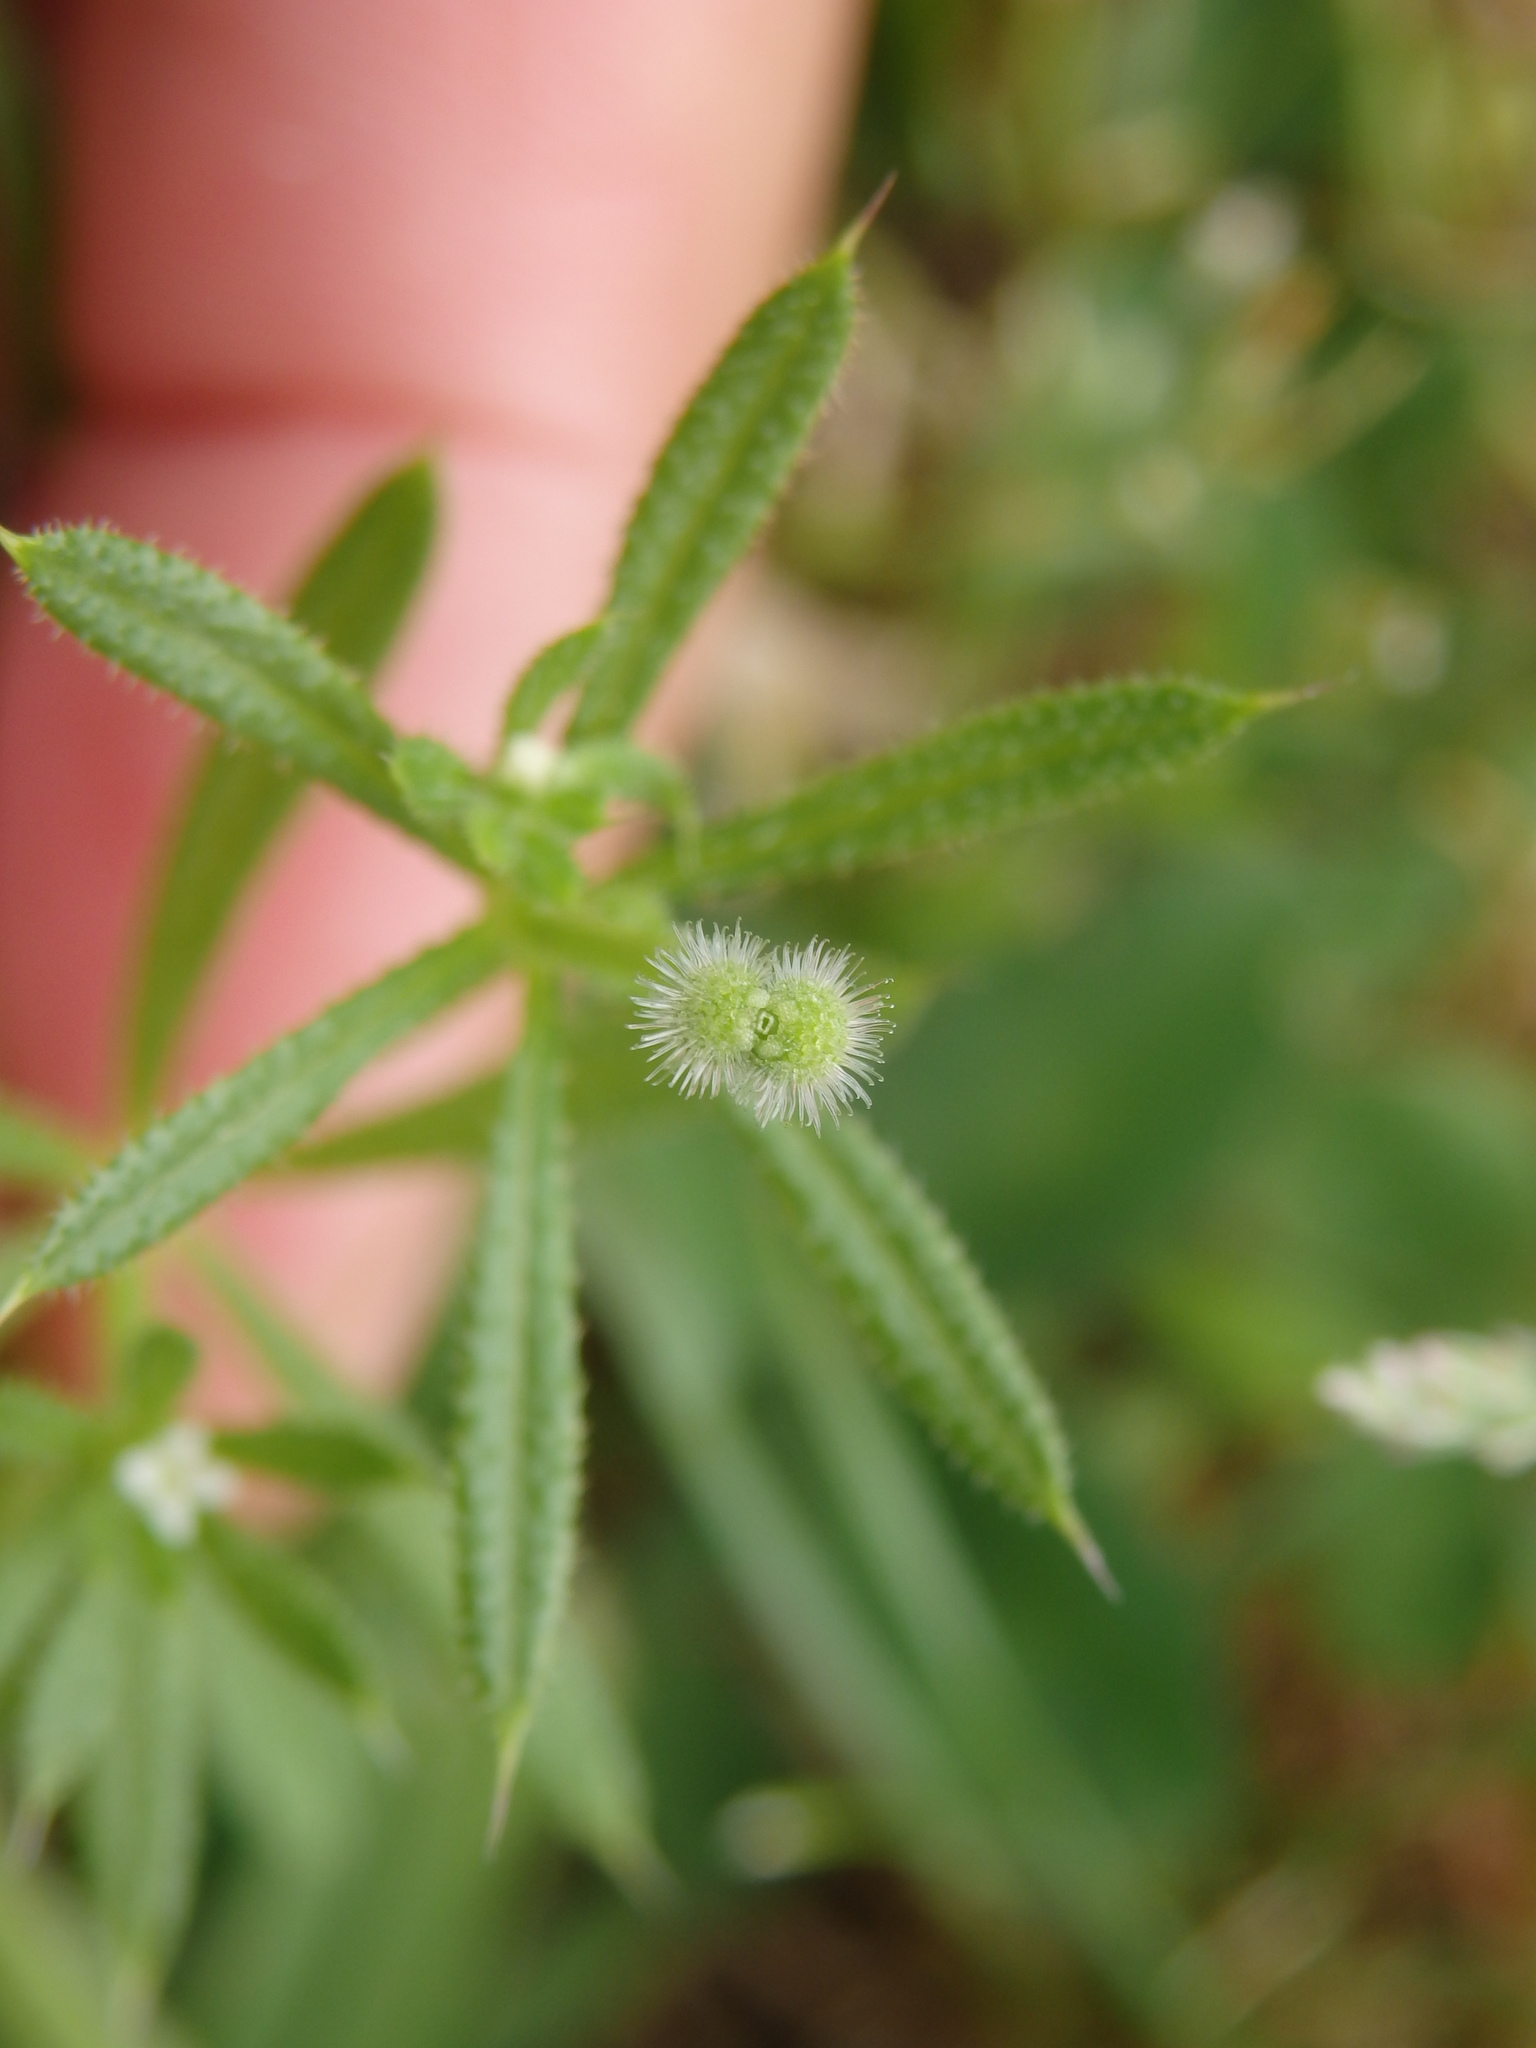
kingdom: Plantae
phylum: Tracheophyta
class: Magnoliopsida
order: Gentianales
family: Rubiaceae
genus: Galium
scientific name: Galium aparine
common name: Cleavers
